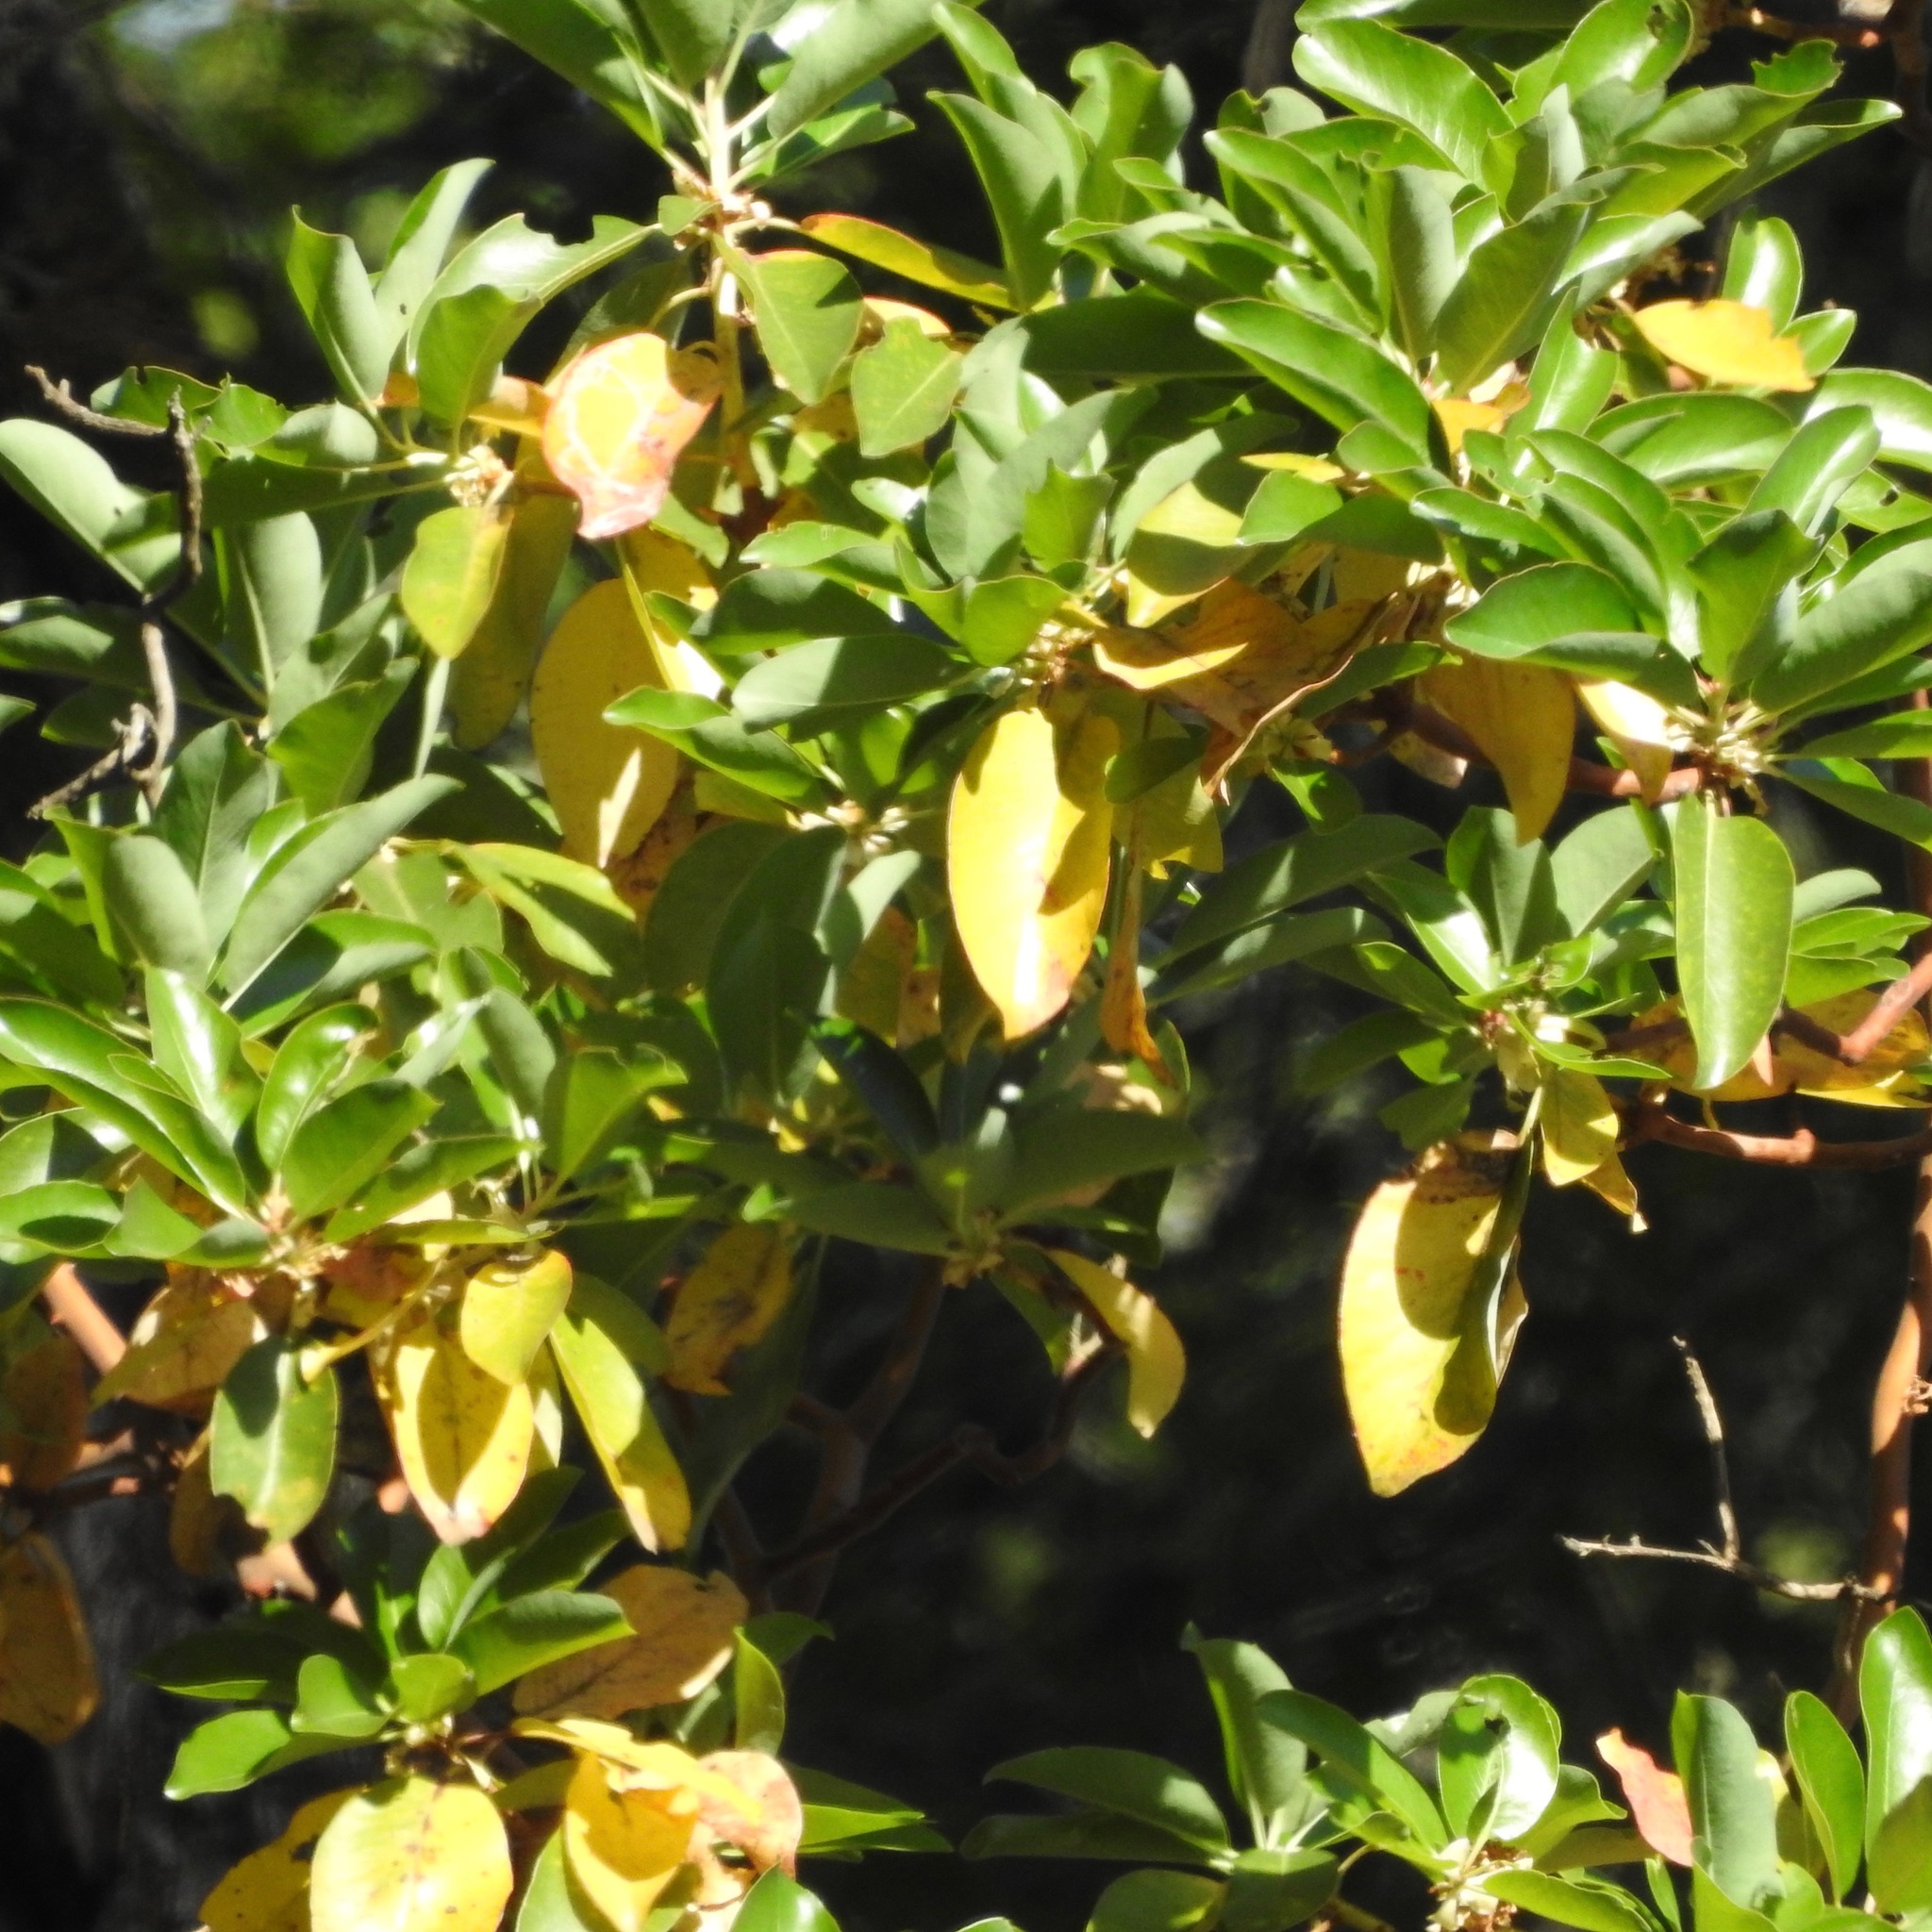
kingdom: Plantae
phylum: Tracheophyta
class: Magnoliopsida
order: Ericales
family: Ericaceae
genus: Arbutus
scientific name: Arbutus menziesii
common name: Pacific madrone
